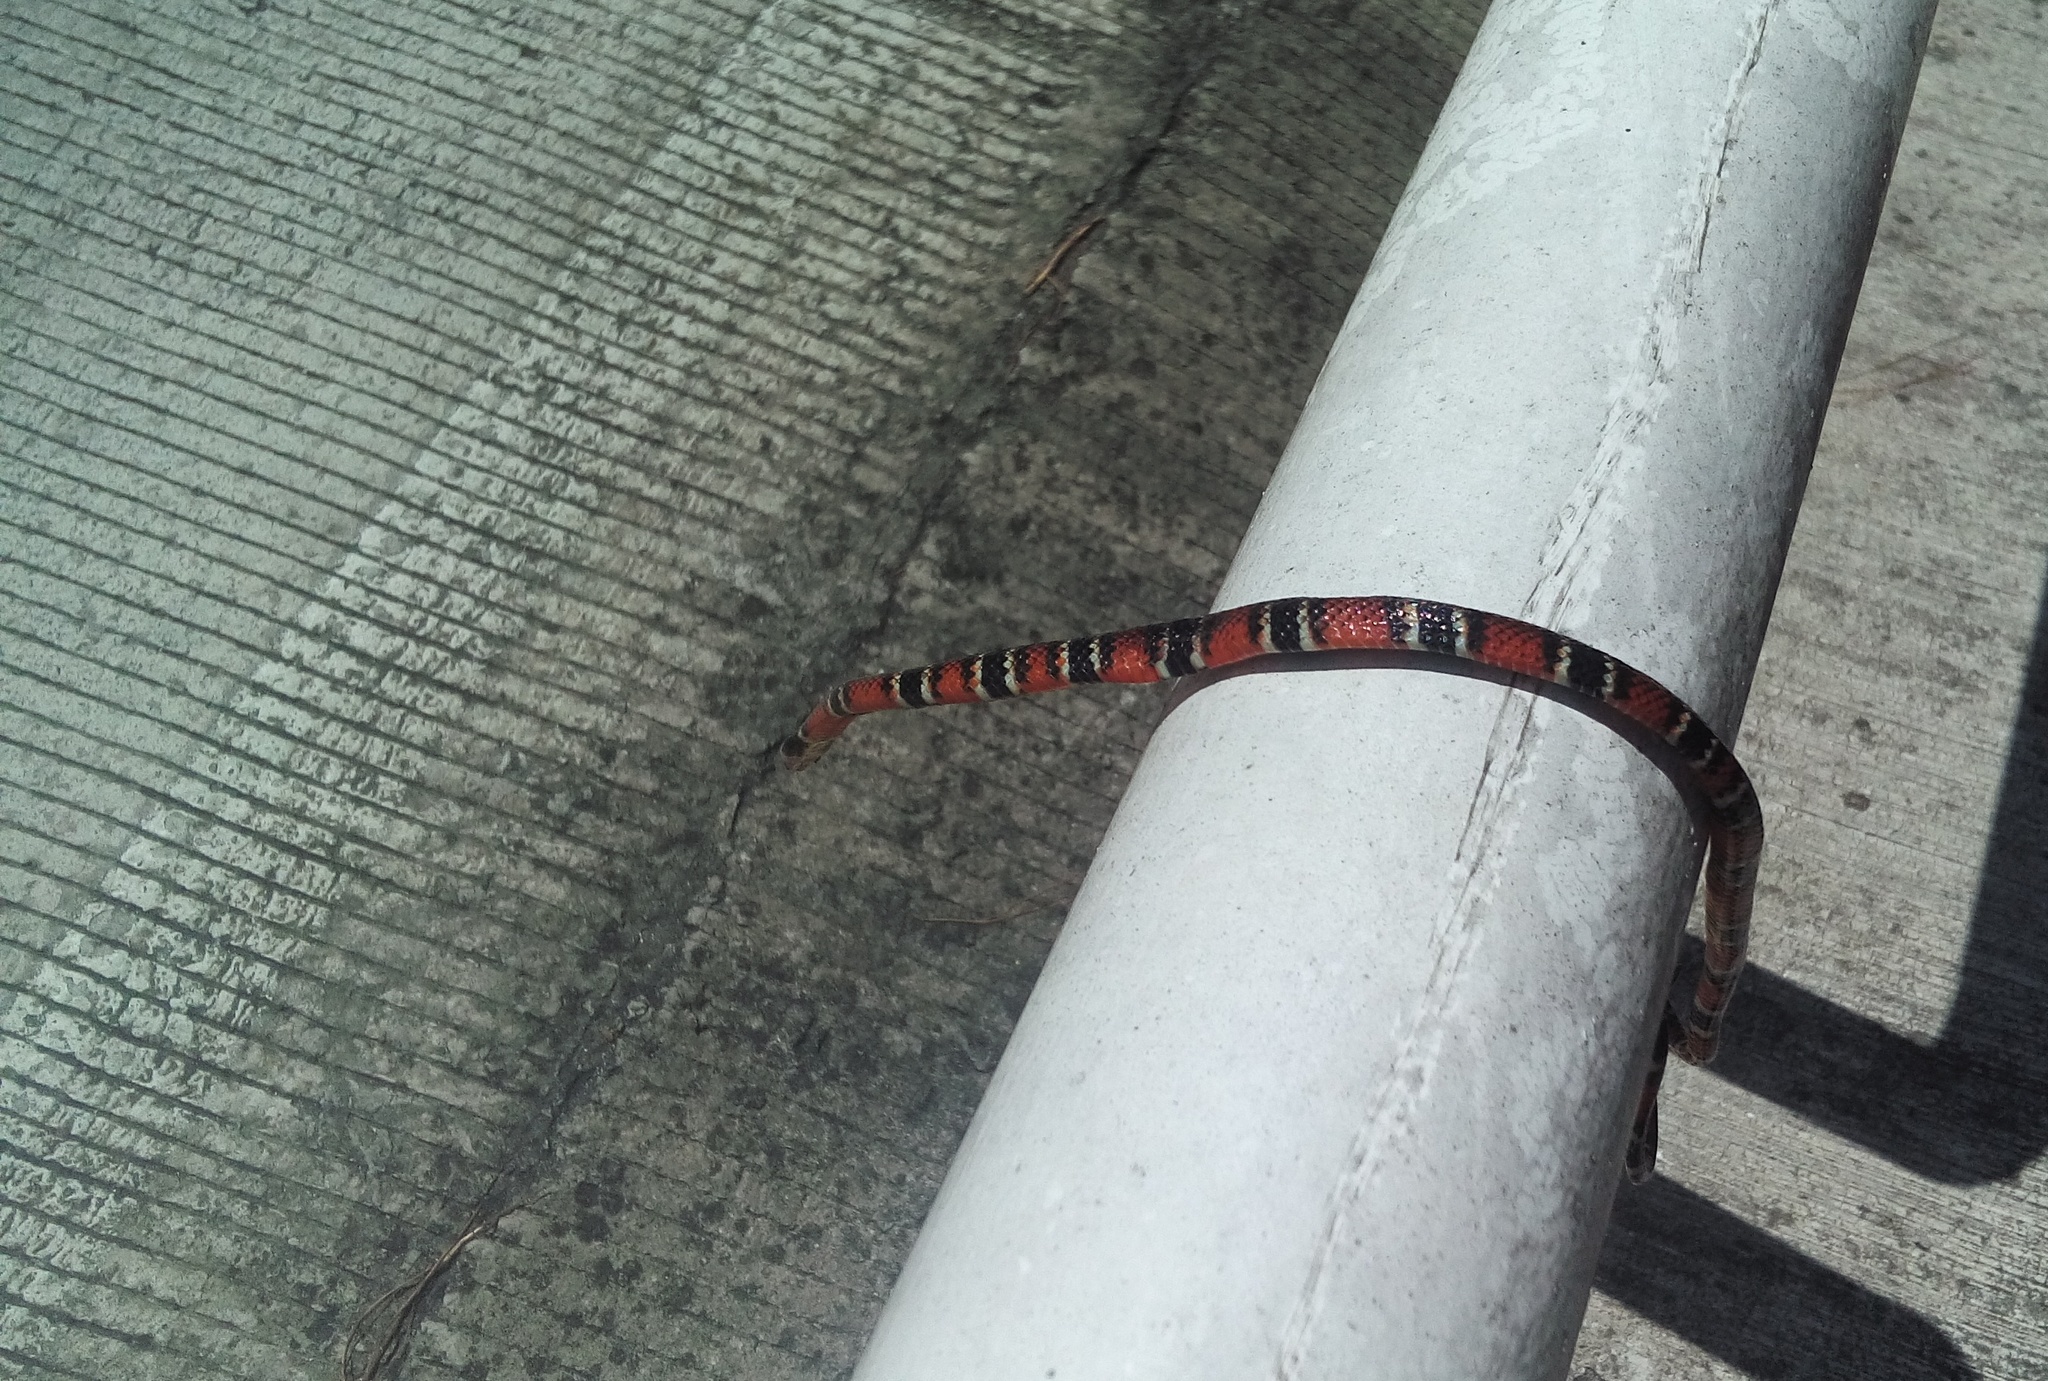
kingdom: Animalia
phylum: Chordata
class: Squamata
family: Colubridae
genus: Pliocercus
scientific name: Pliocercus elapoides
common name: Variegated false coral snake.
